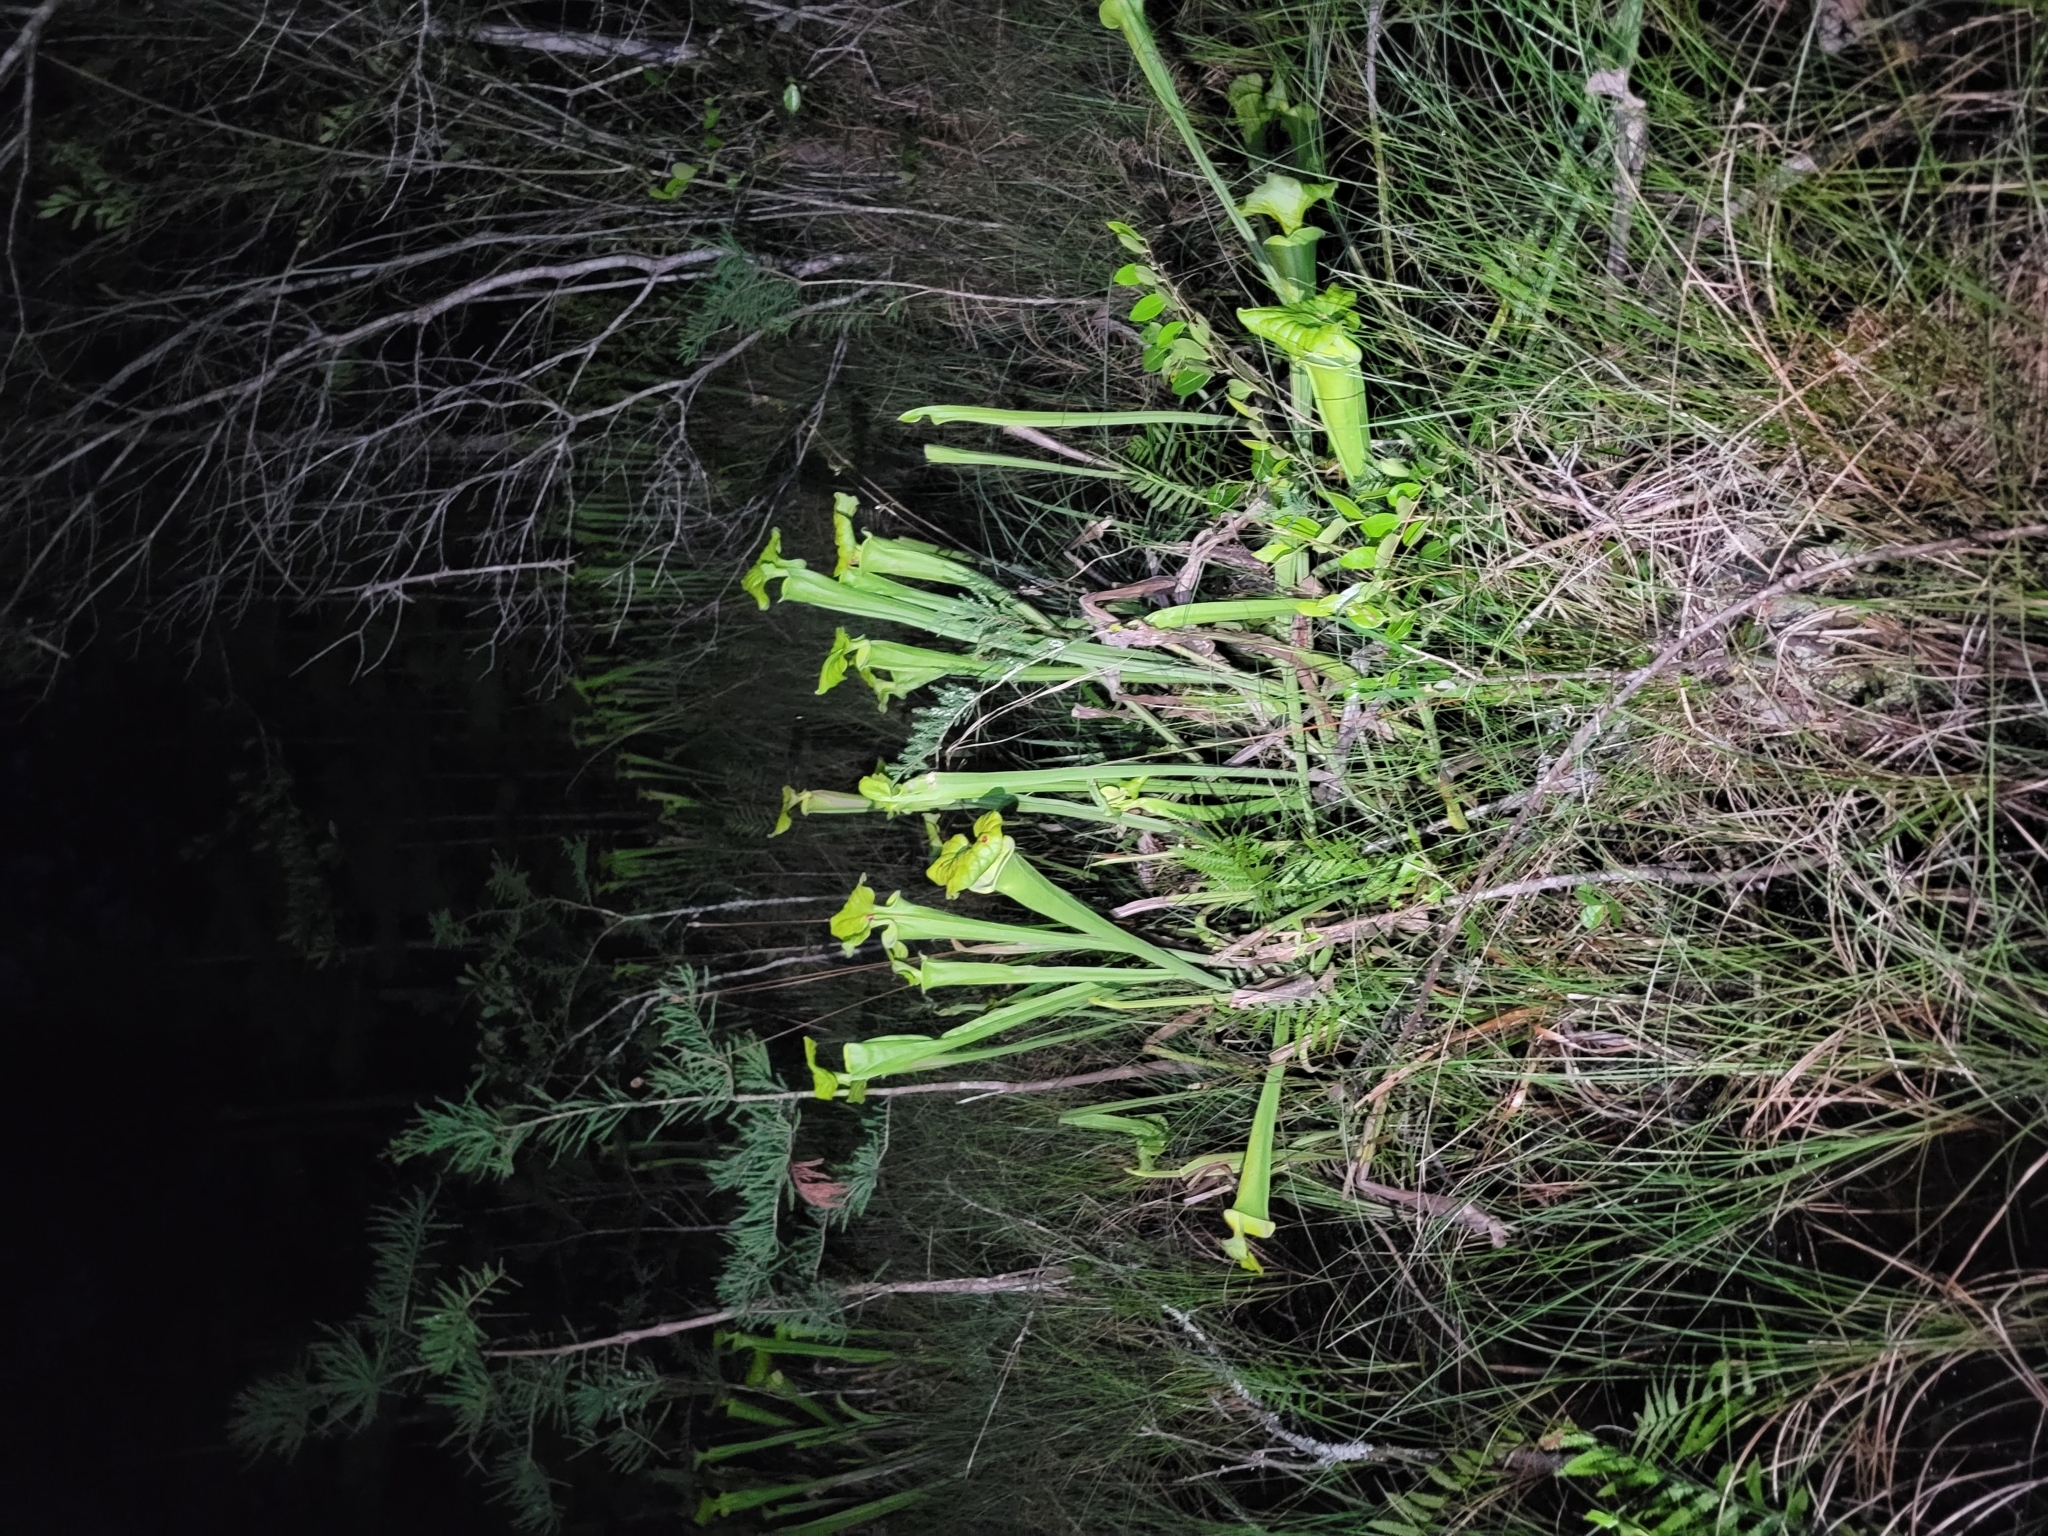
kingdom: Plantae
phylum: Tracheophyta
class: Magnoliopsida
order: Ericales
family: Sarraceniaceae
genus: Sarracenia
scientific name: Sarracenia flava
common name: Trumpets
